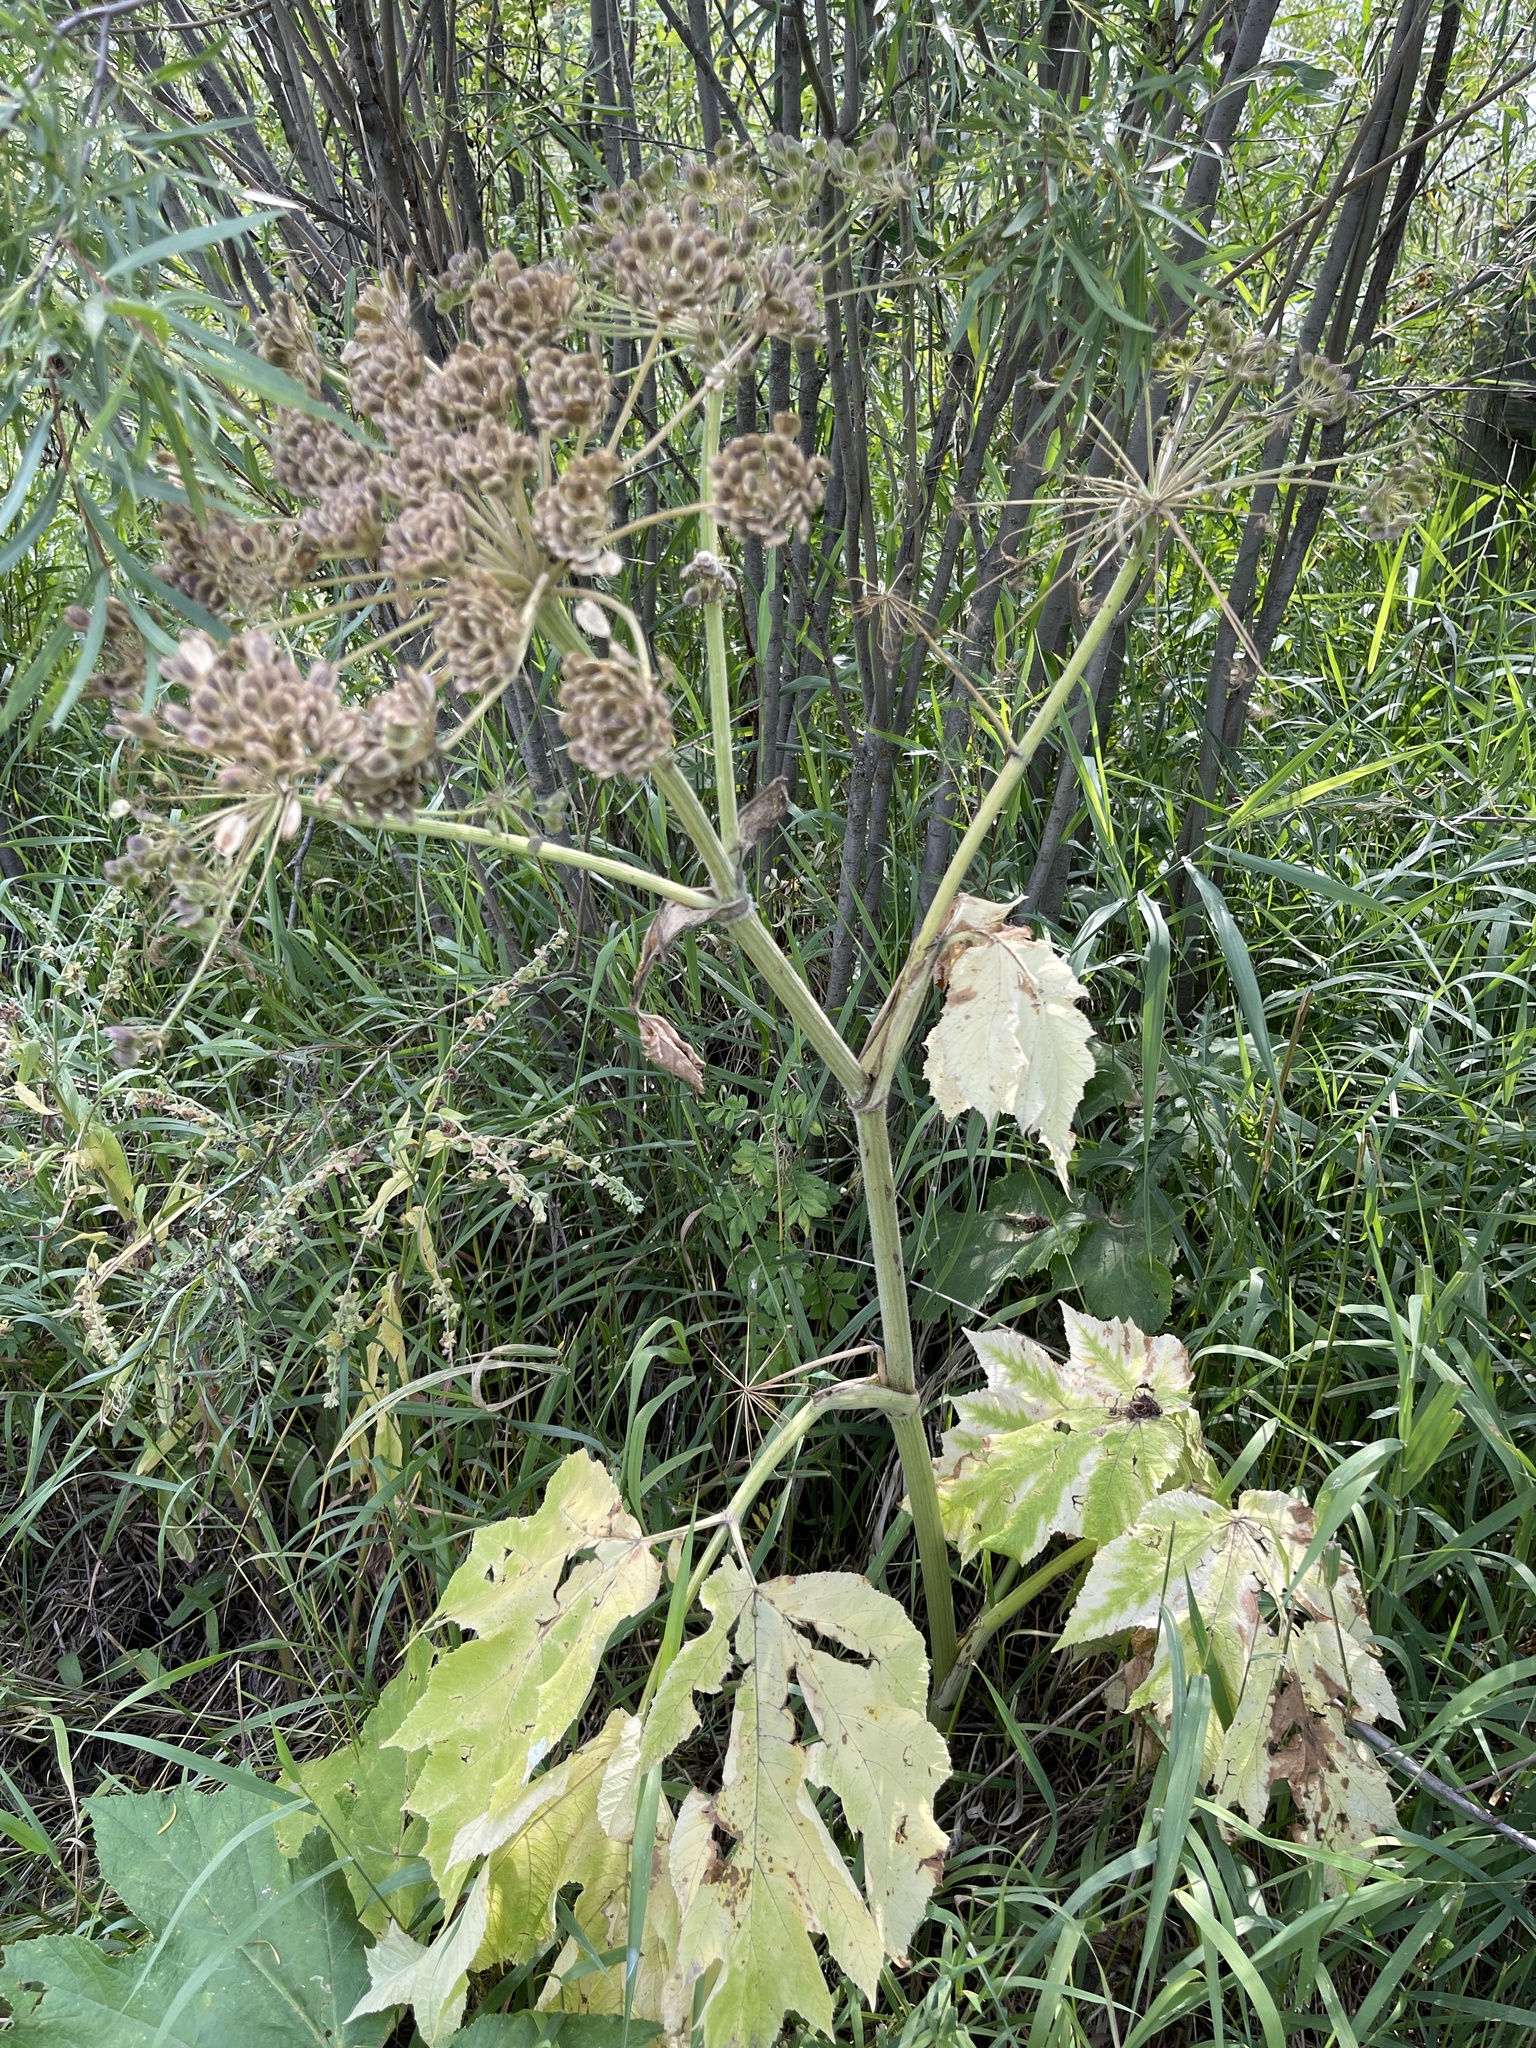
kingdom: Plantae
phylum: Tracheophyta
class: Magnoliopsida
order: Apiales
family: Apiaceae
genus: Heracleum
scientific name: Heracleum maximum
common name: American cow parsnip
